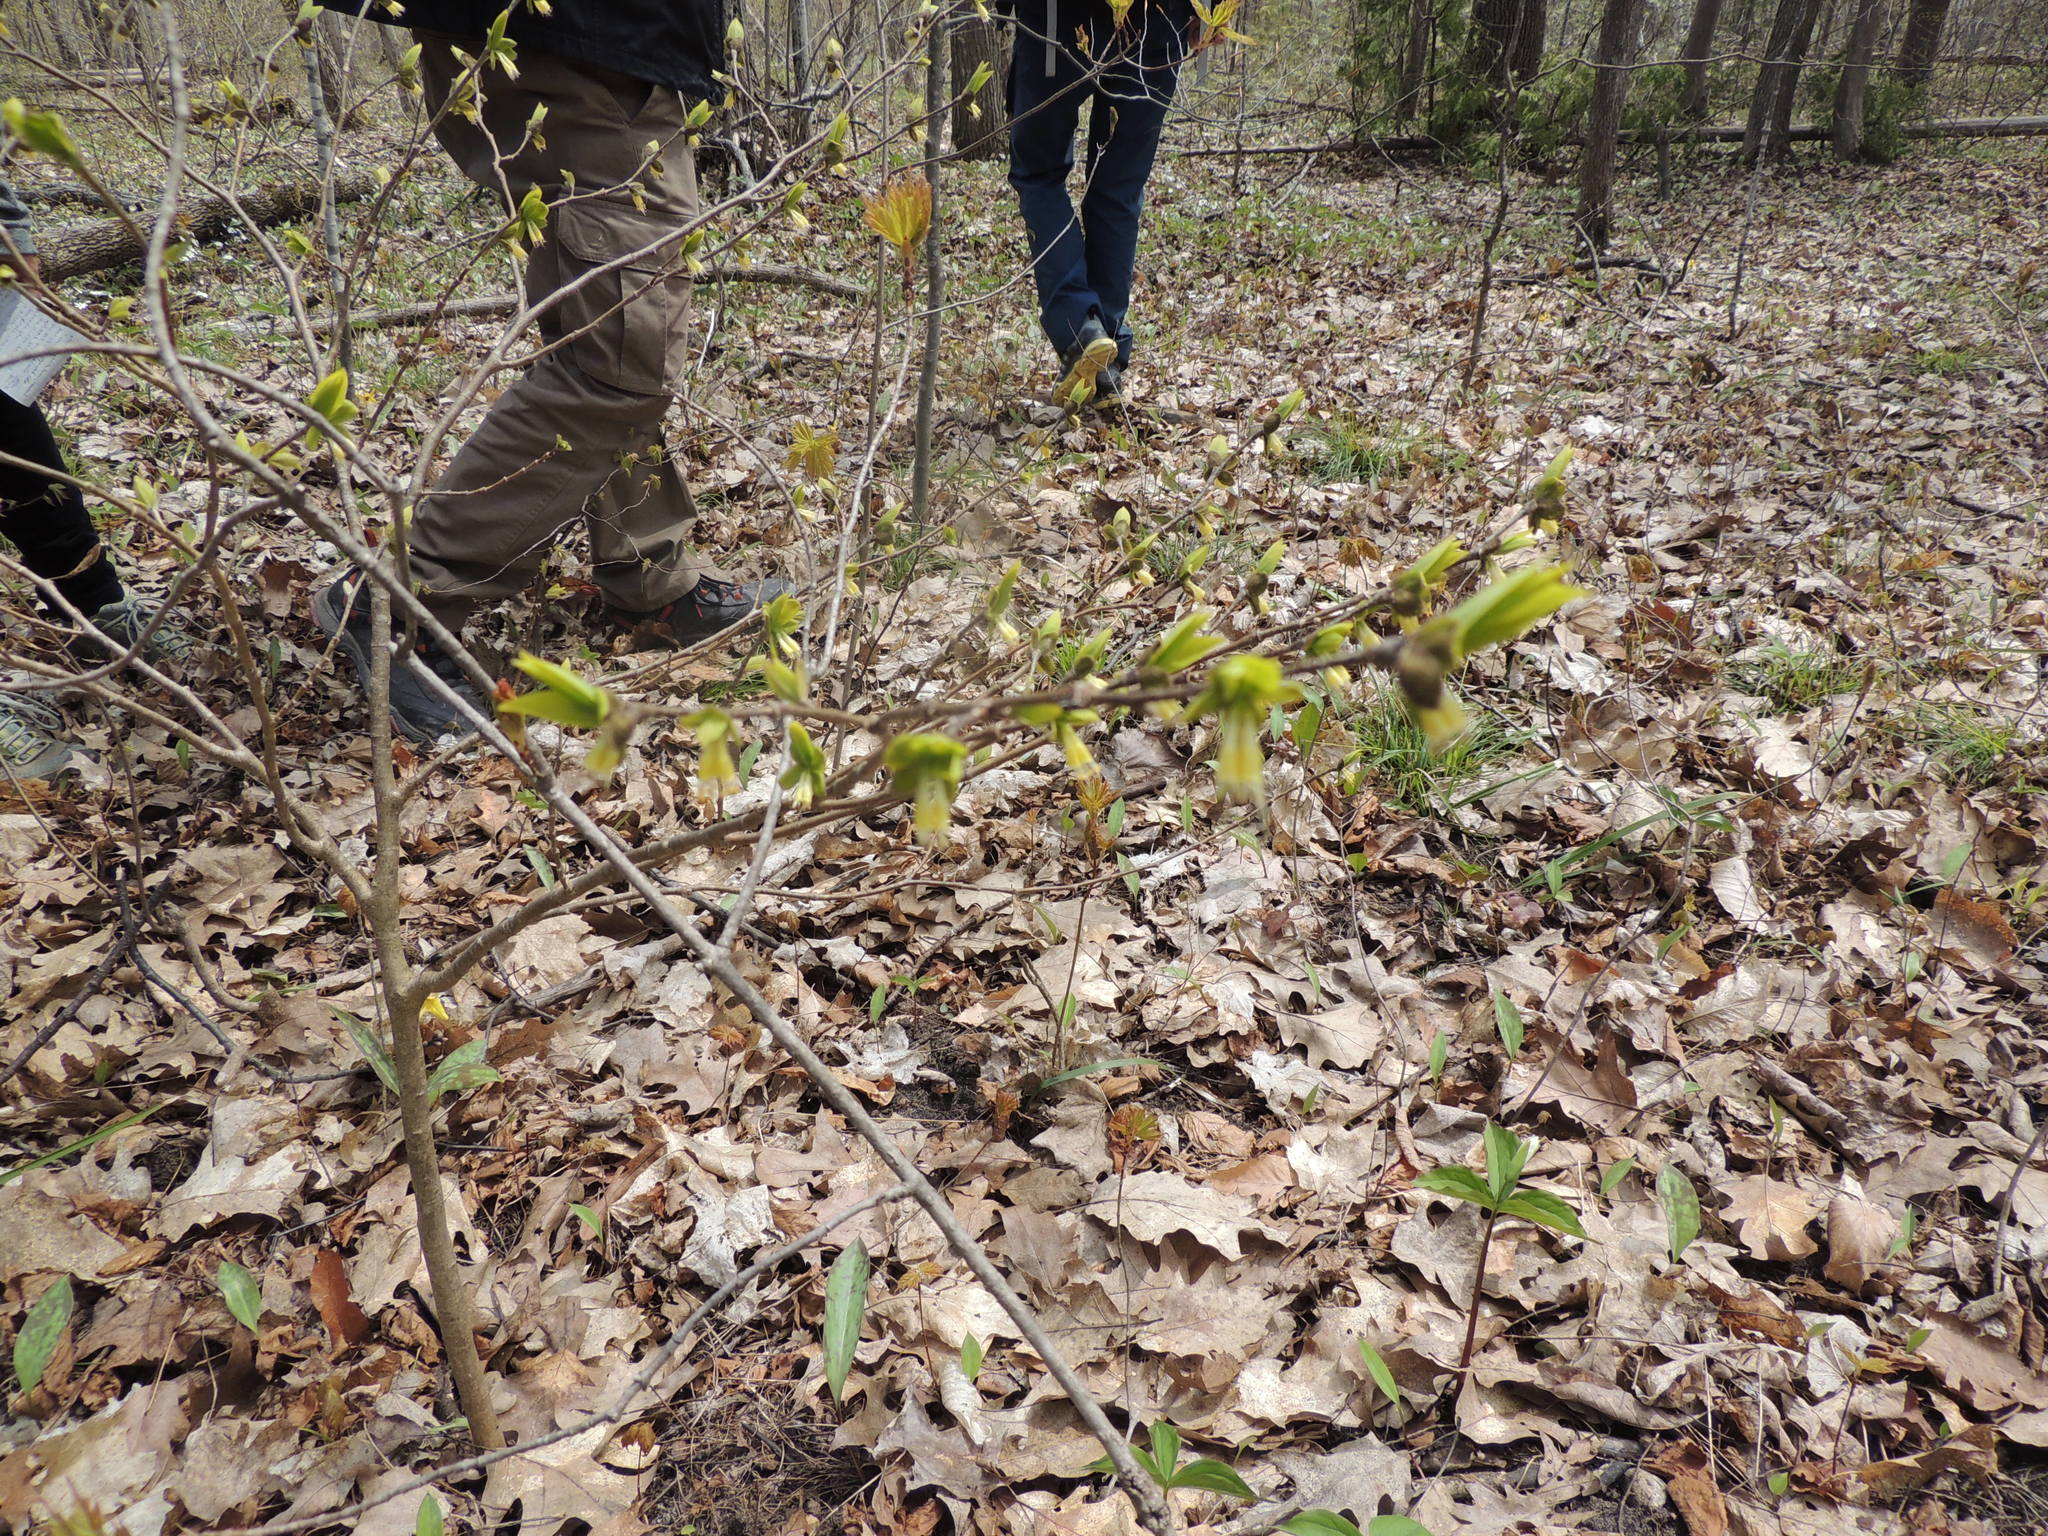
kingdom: Plantae
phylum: Tracheophyta
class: Magnoliopsida
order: Malvales
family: Thymelaeaceae
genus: Dirca
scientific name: Dirca palustris
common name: Leatherwood
